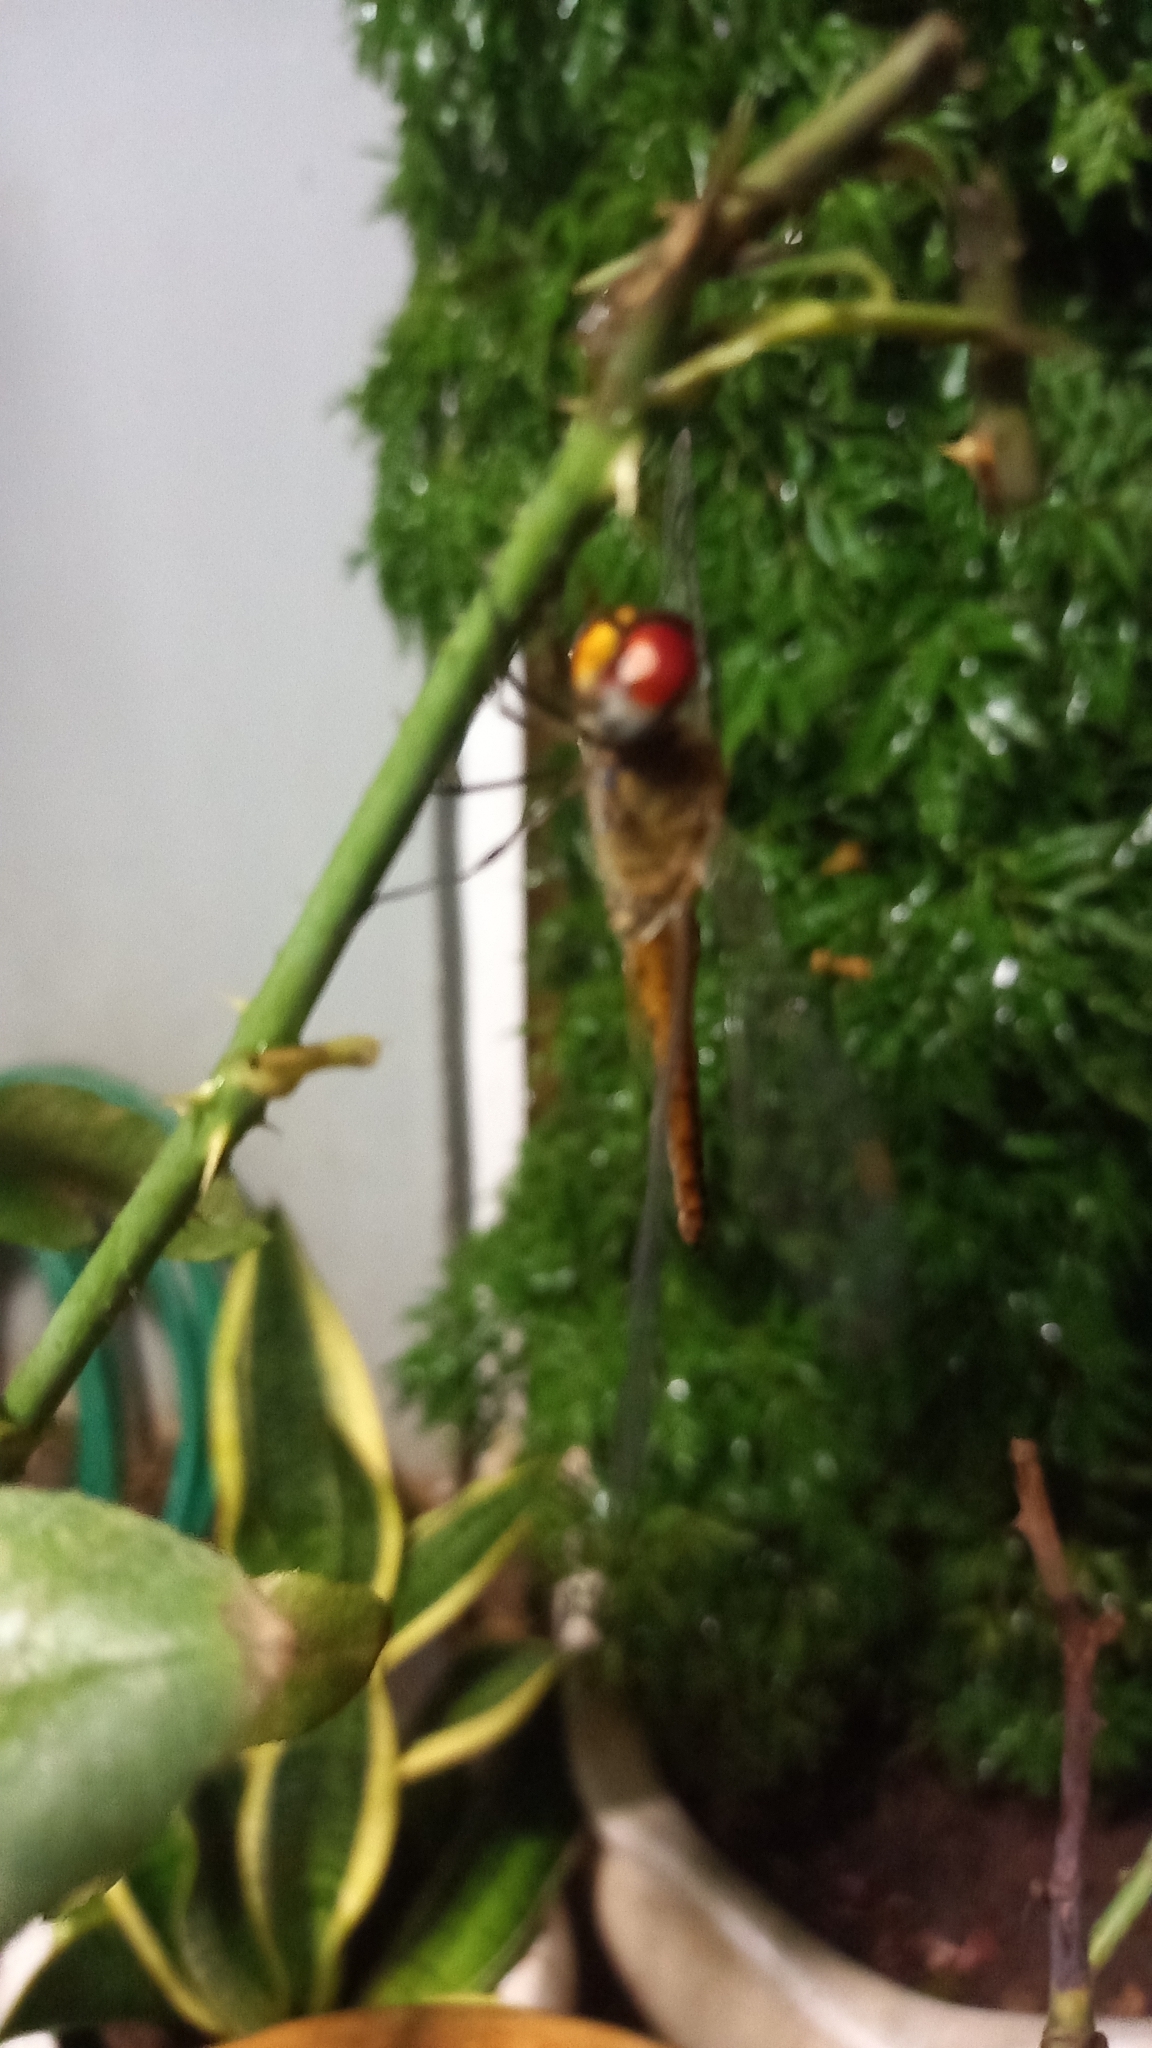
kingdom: Animalia
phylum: Arthropoda
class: Insecta
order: Odonata
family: Libellulidae
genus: Pantala
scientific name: Pantala flavescens
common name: Wandering glider
